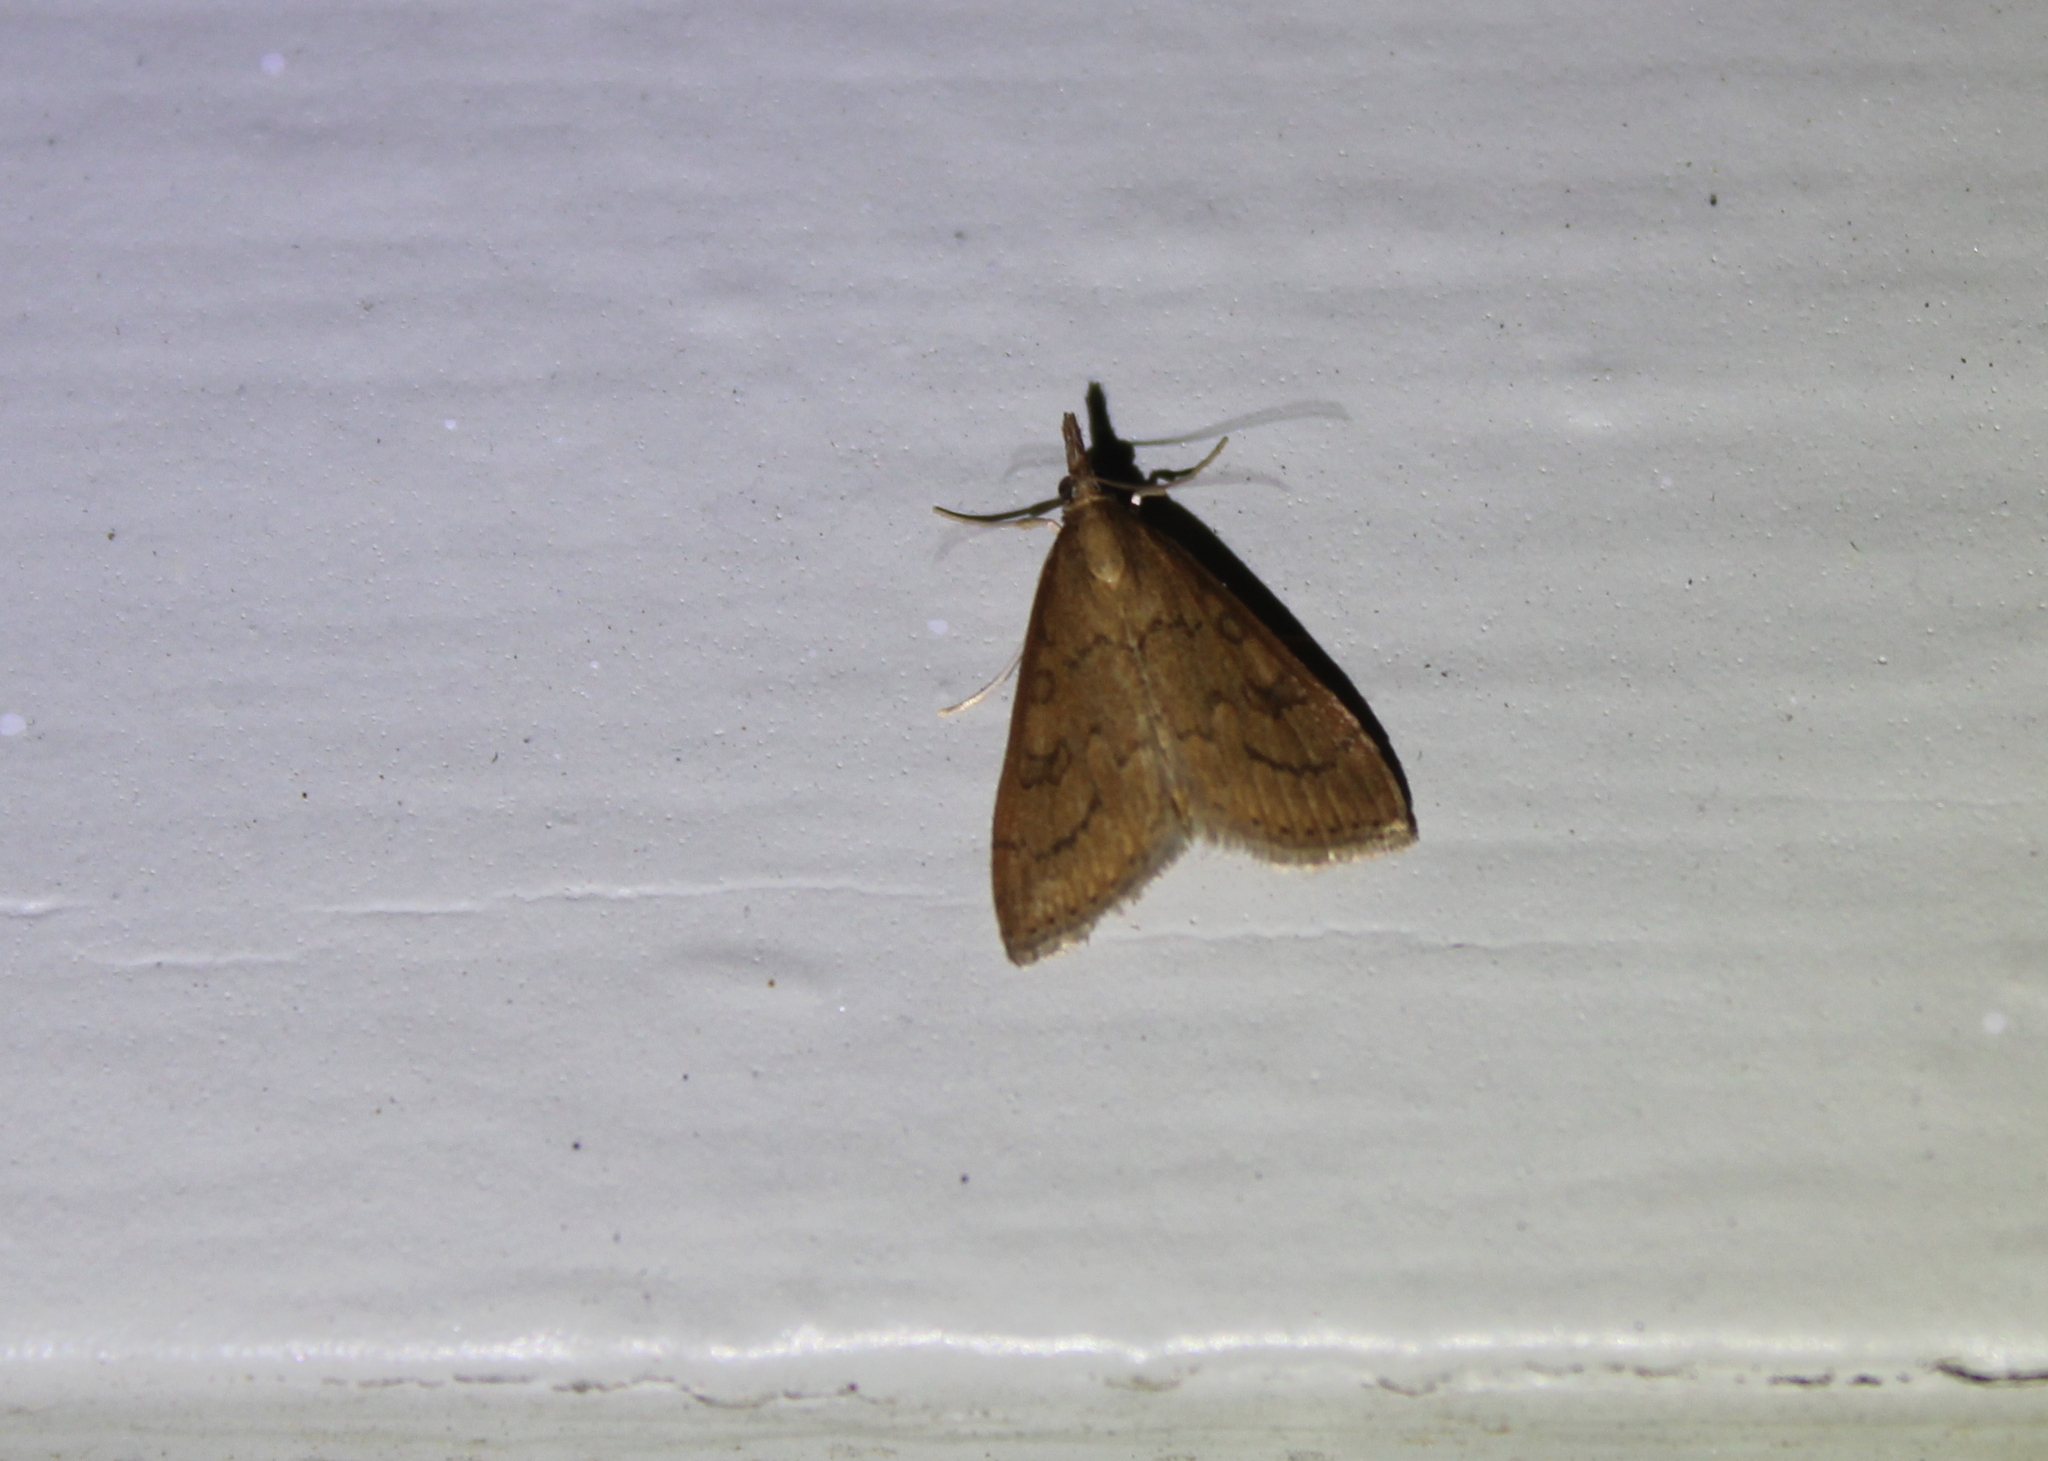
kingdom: Animalia
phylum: Arthropoda
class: Insecta
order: Lepidoptera
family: Crambidae
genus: Udea
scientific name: Udea rubigalis
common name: Celery leaftier moth
